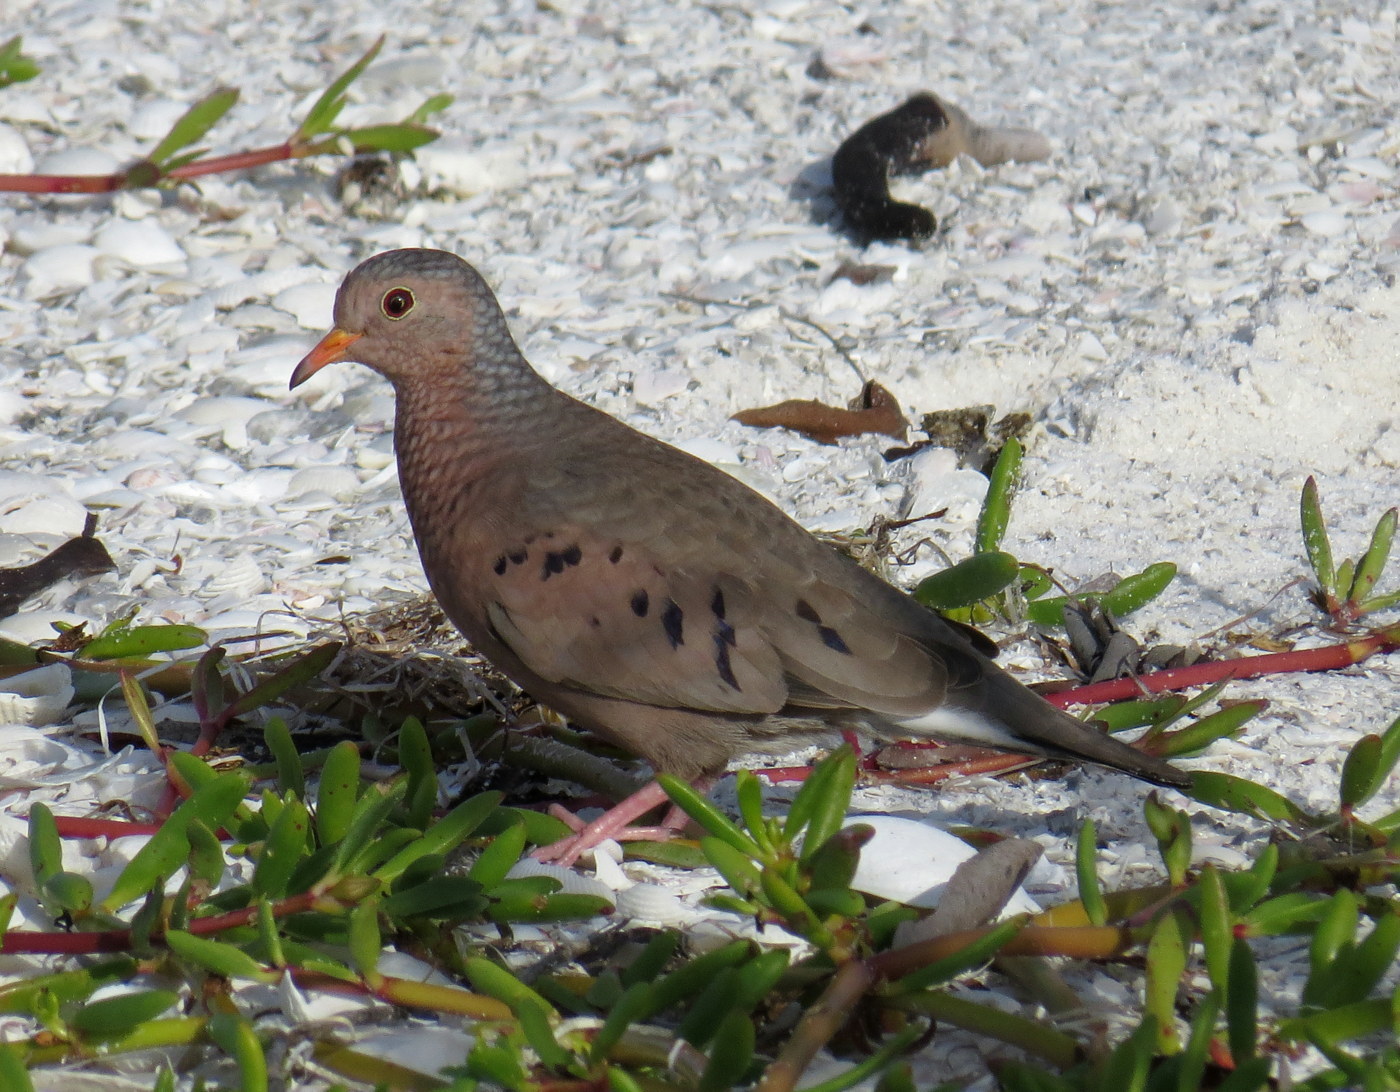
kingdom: Animalia
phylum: Chordata
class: Aves
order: Columbiformes
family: Columbidae
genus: Columbina
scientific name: Columbina passerina
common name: Common ground-dove
